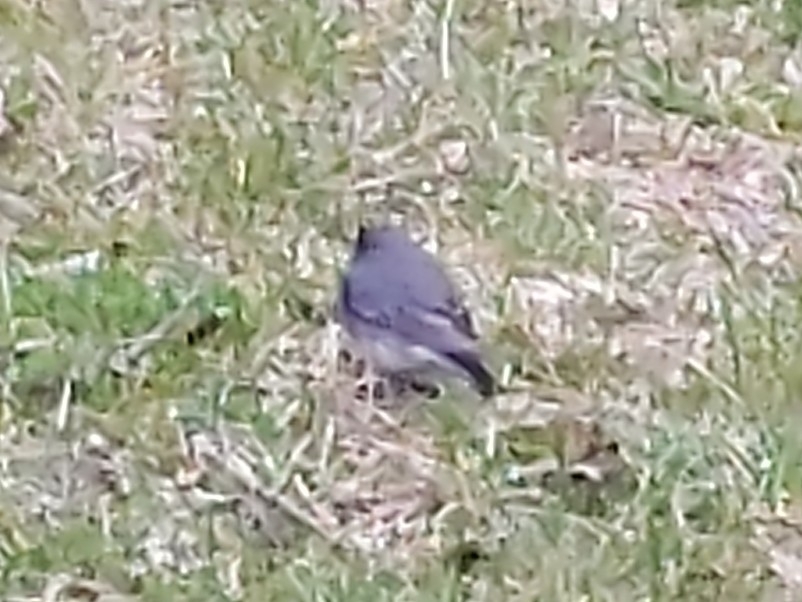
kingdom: Animalia
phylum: Chordata
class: Aves
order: Passeriformes
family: Passerellidae
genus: Junco
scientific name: Junco hyemalis
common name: Dark-eyed junco
